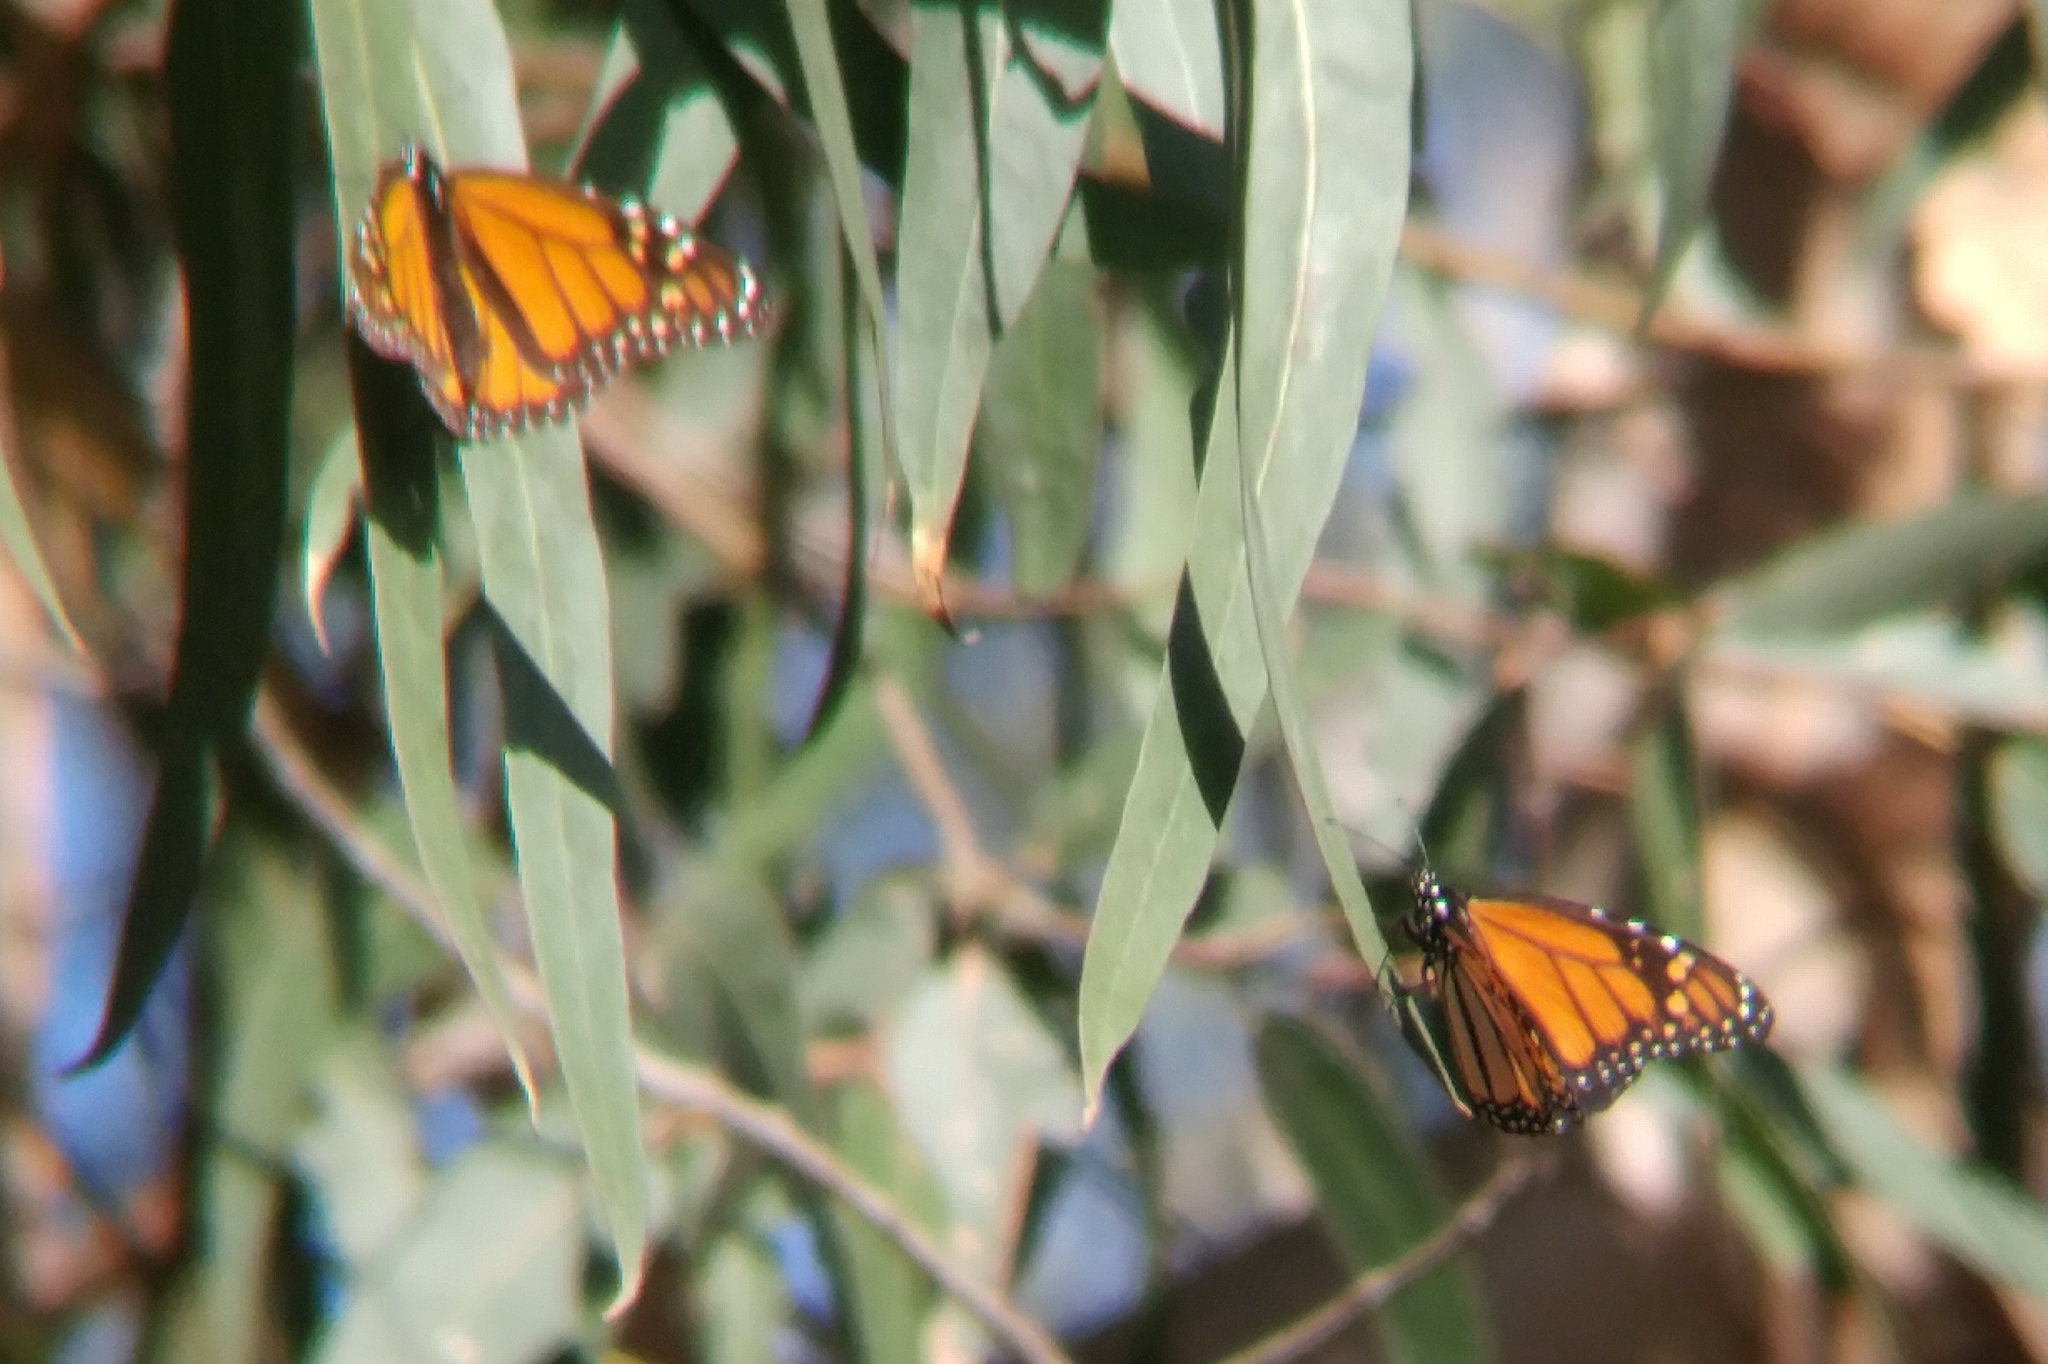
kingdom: Animalia
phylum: Arthropoda
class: Insecta
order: Lepidoptera
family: Nymphalidae
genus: Danaus
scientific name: Danaus plexippus
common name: Monarch
